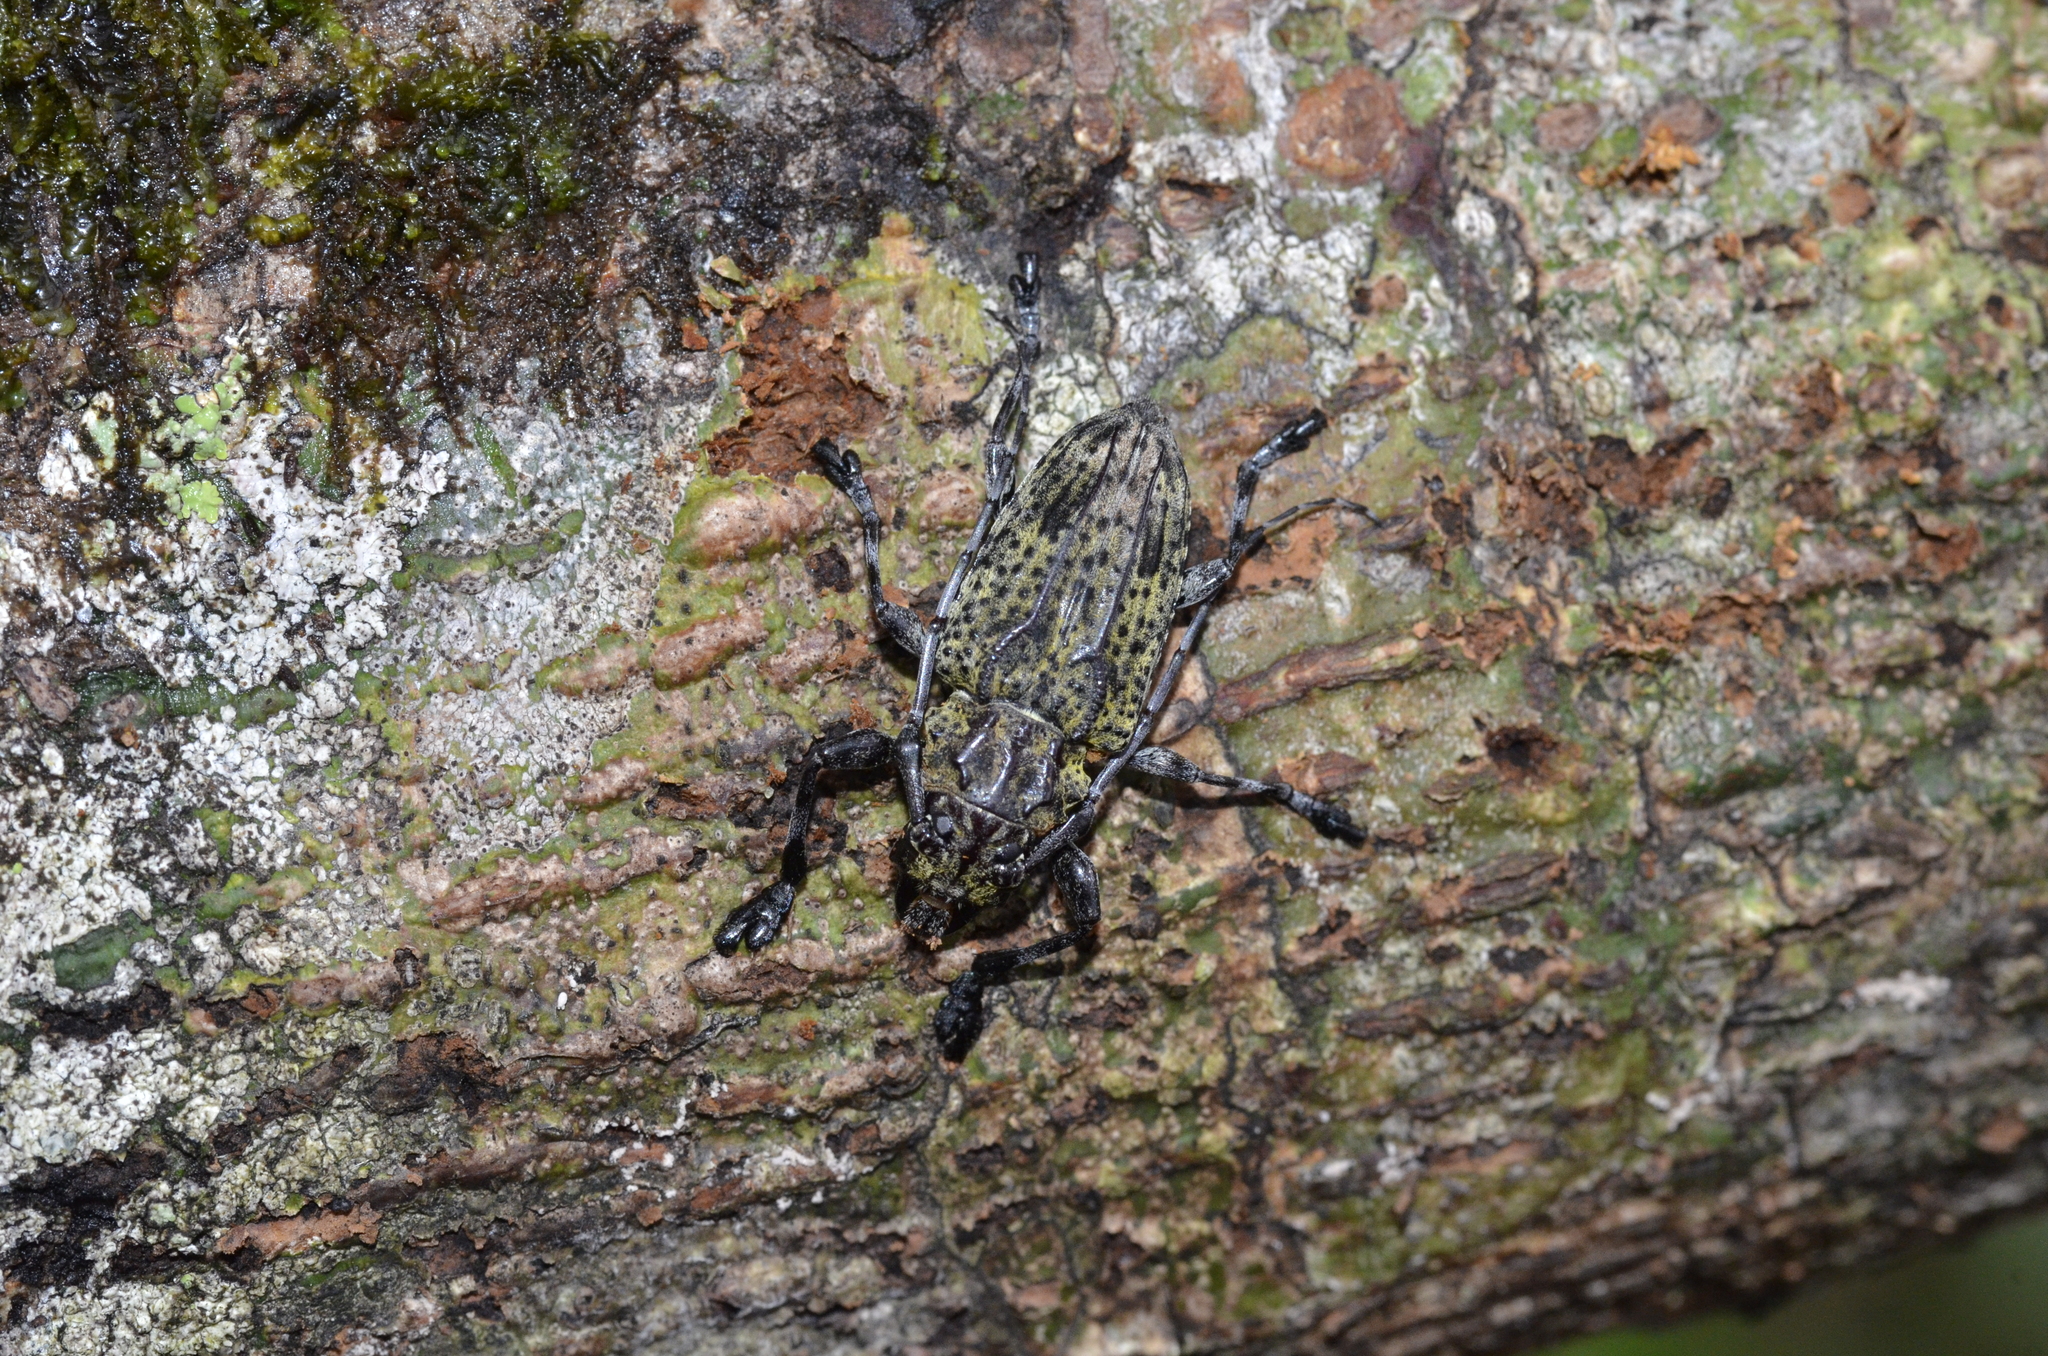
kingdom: Animalia
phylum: Arthropoda
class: Insecta
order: Coleoptera
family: Cerambycidae
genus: Steirastoma
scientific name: Steirastoma breve
